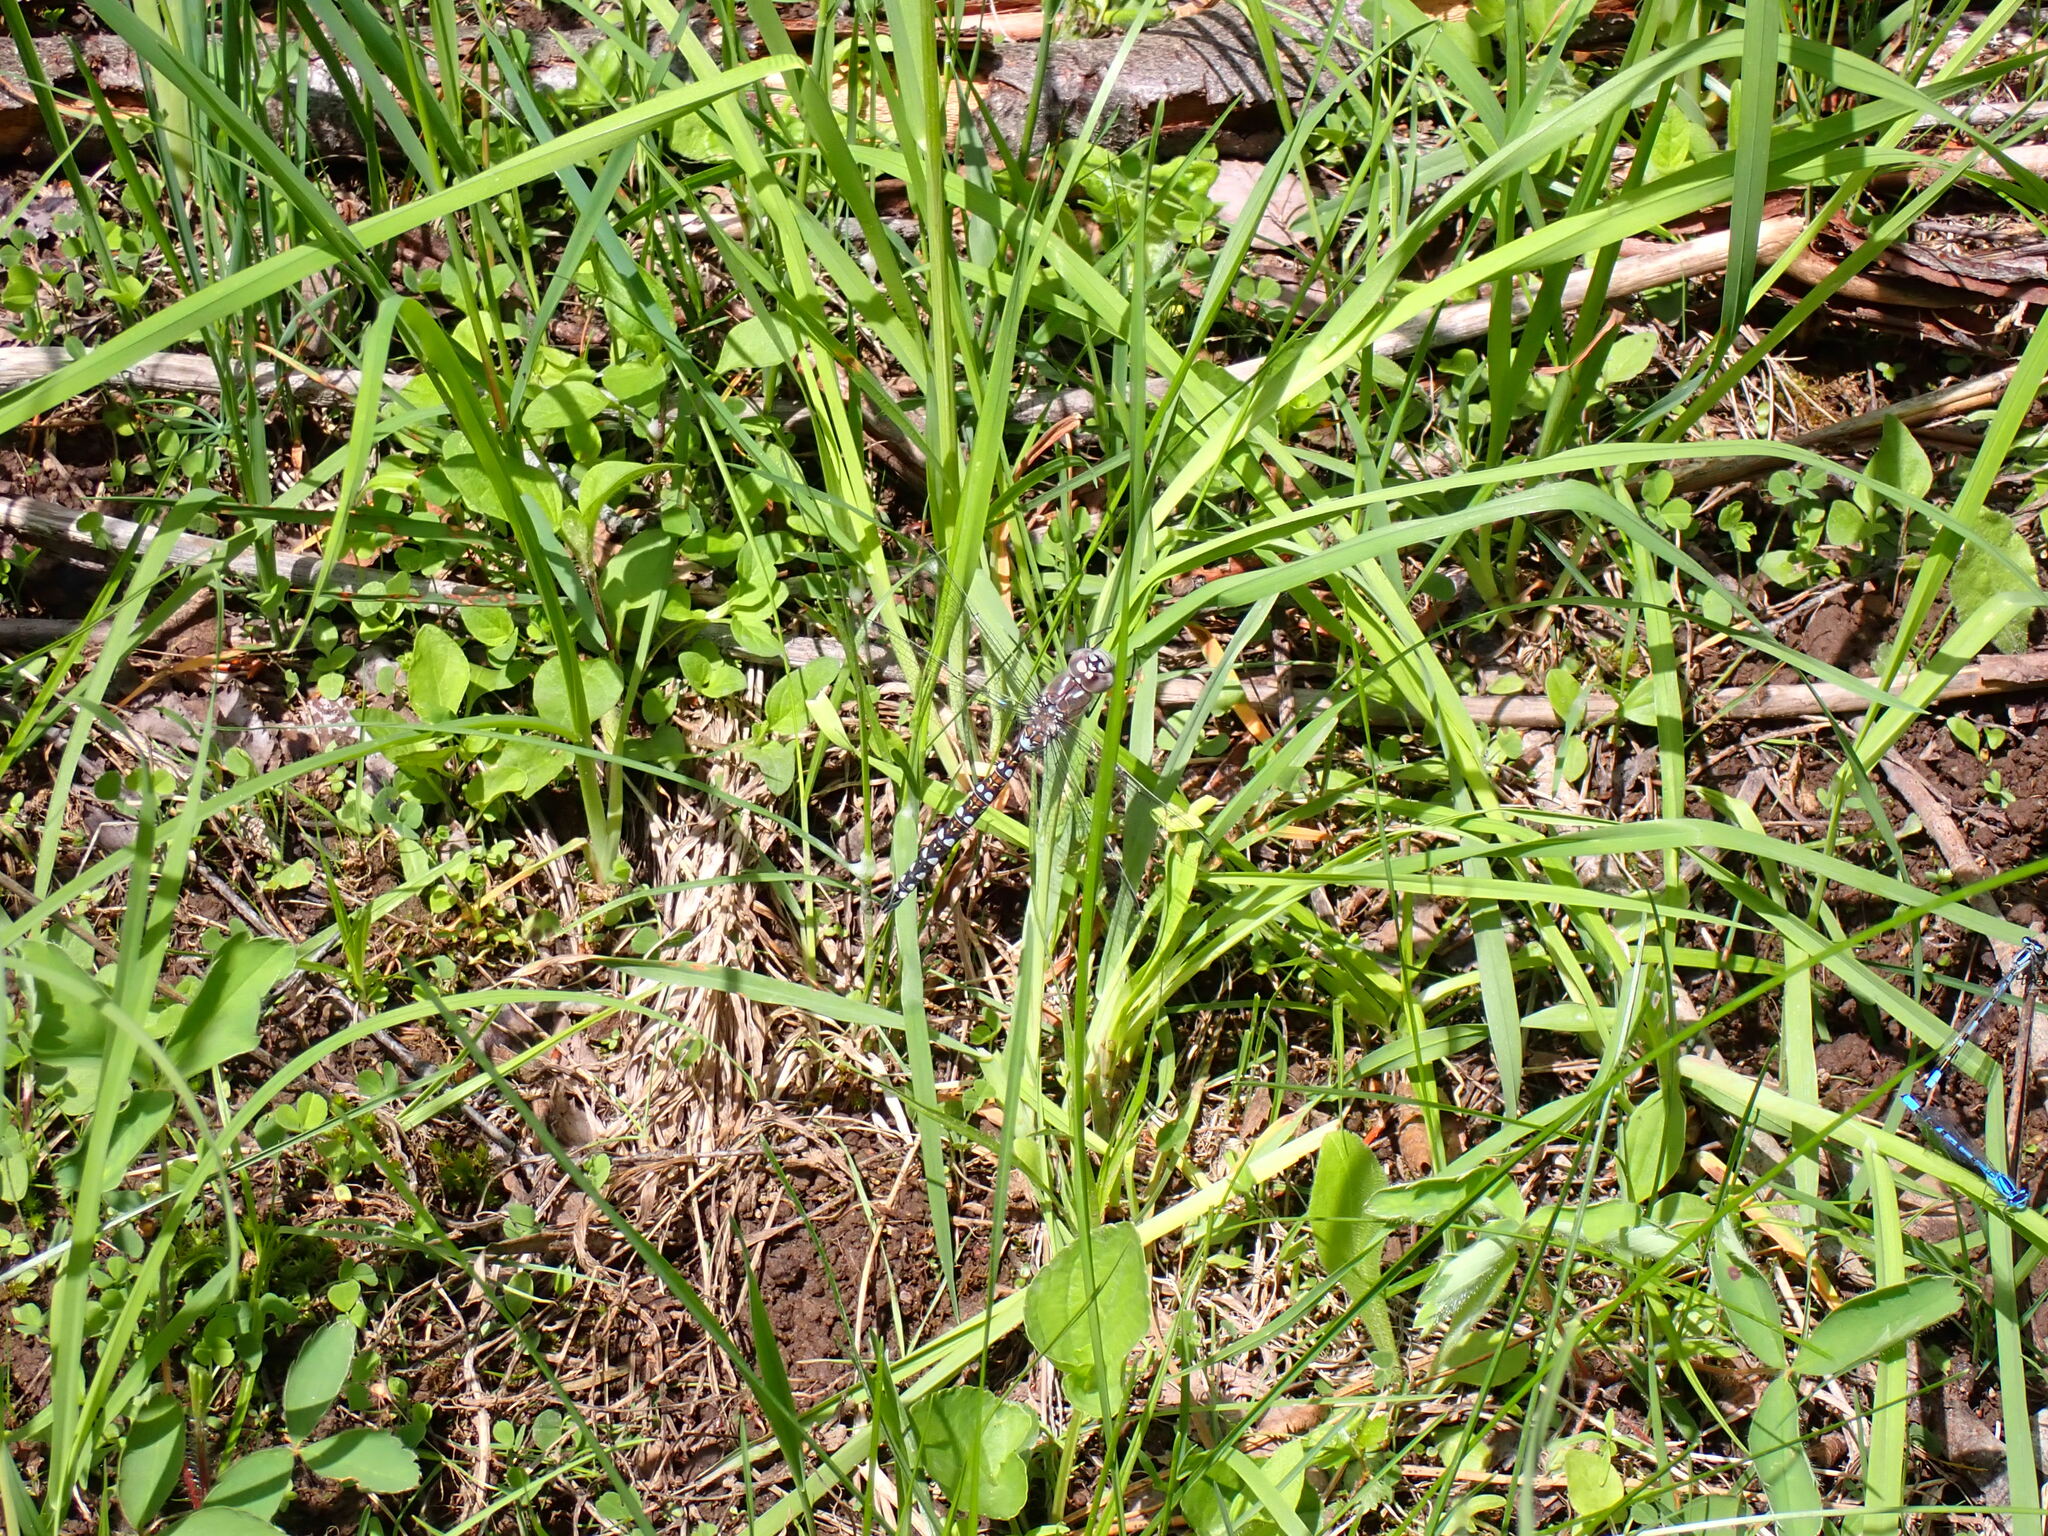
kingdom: Animalia
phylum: Arthropoda
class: Insecta
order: Odonata
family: Aeshnidae
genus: Rhionaeschna
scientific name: Rhionaeschna californica
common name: California darner
